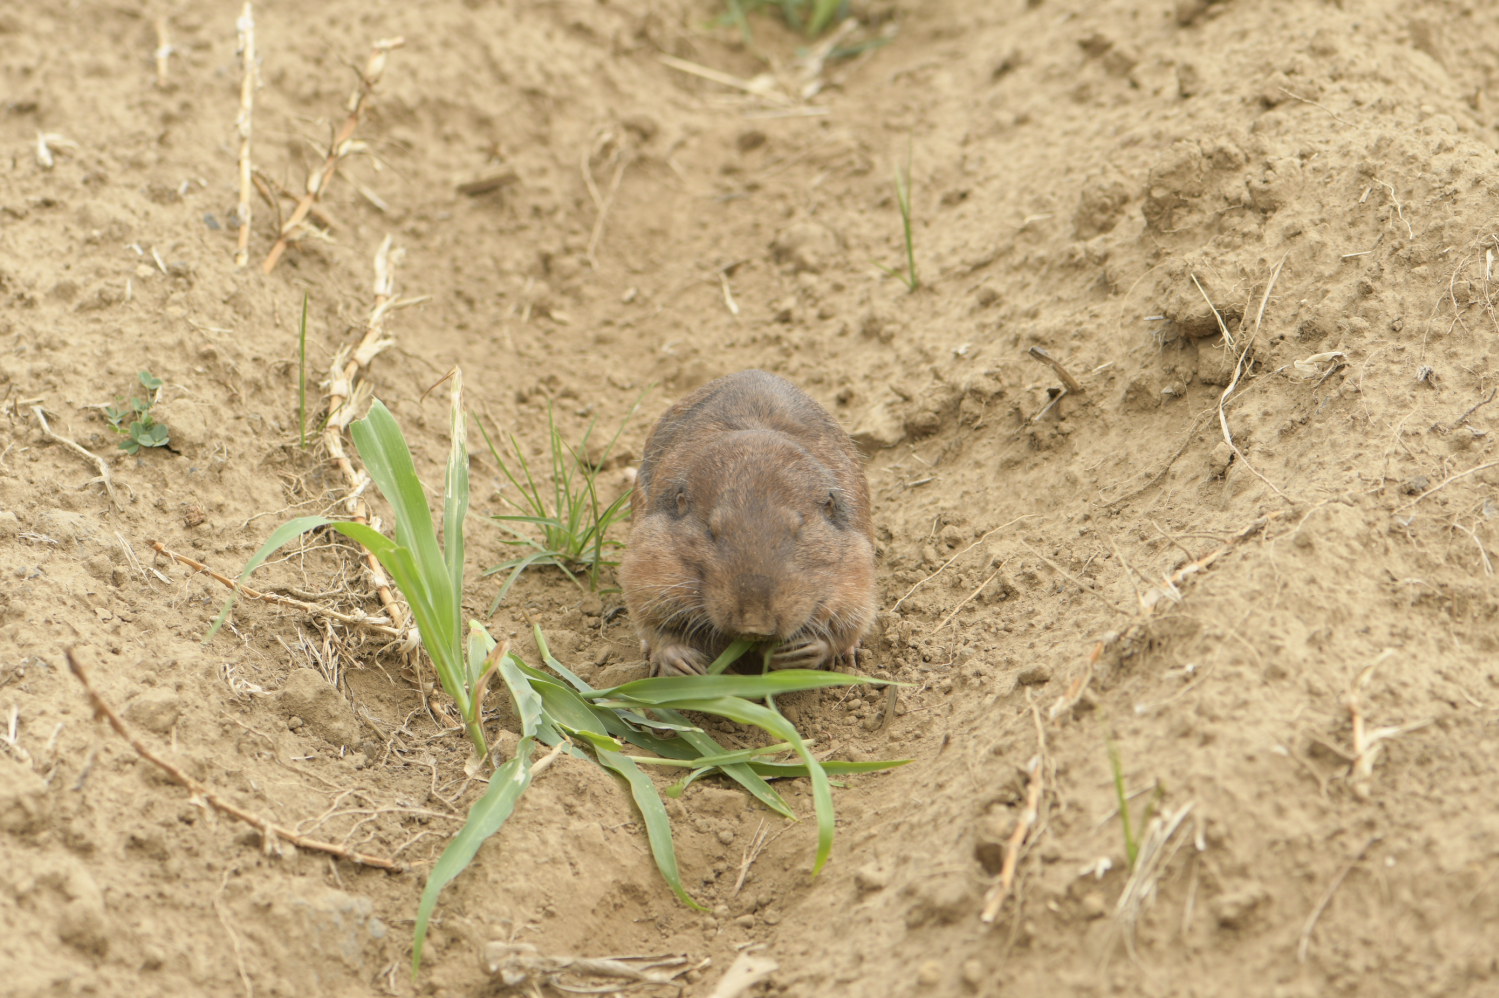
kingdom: Animalia
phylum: Chordata
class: Mammalia
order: Rodentia
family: Geomyidae
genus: Cratogeomys
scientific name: Cratogeomys merriami
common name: Merriam's pocket gopher
